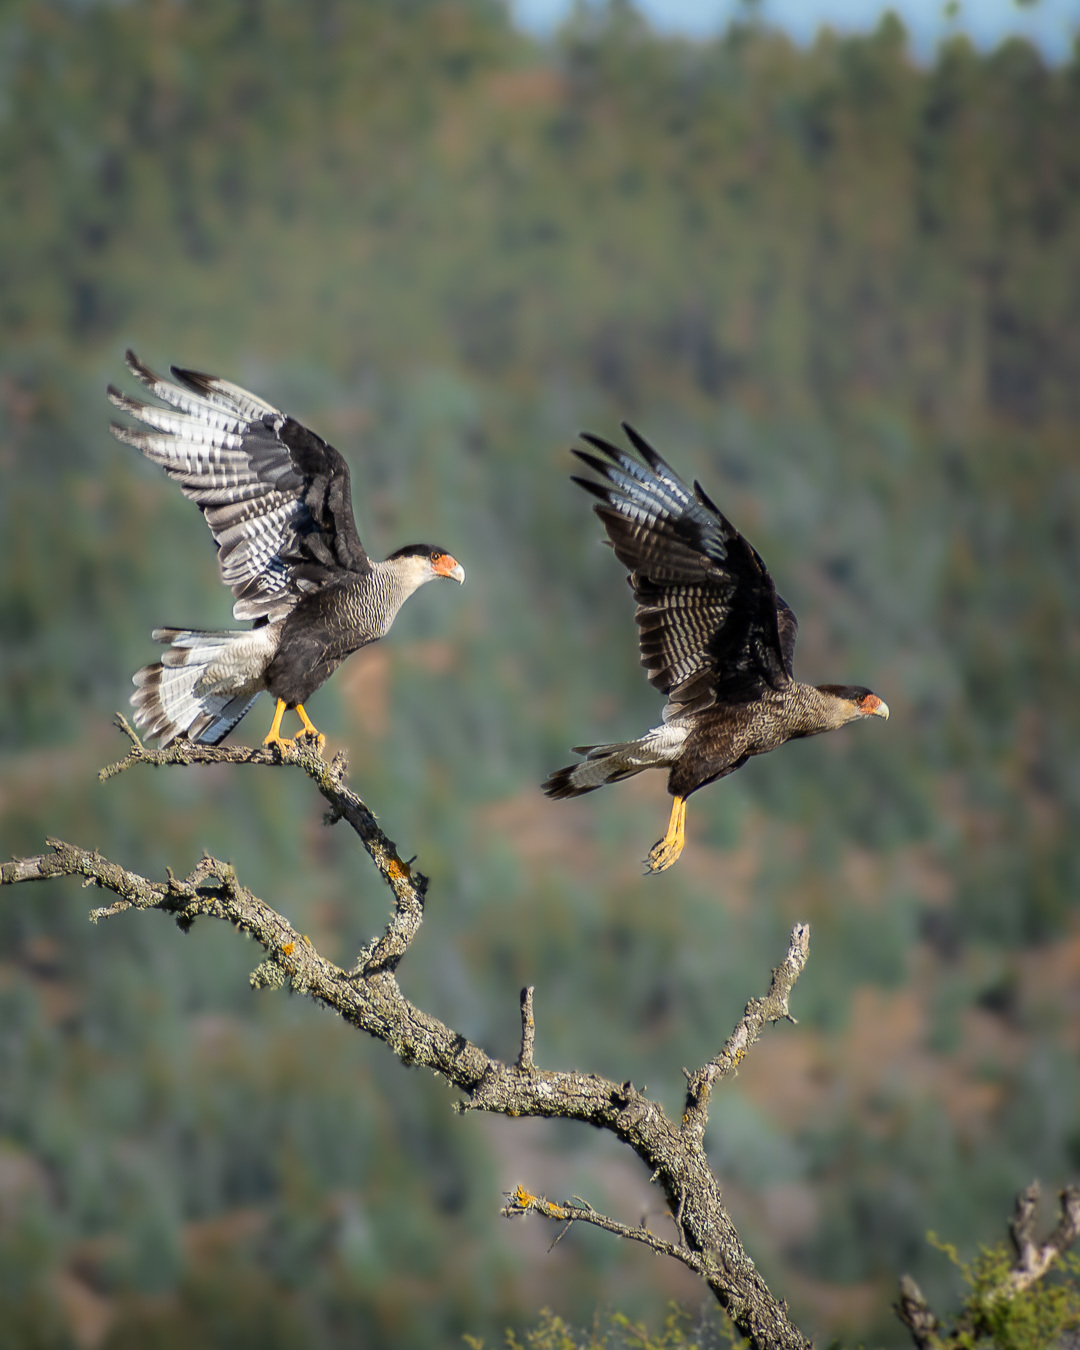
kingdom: Animalia
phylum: Chordata
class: Aves
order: Falconiformes
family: Falconidae
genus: Caracara
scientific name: Caracara plancus
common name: Southern caracara
